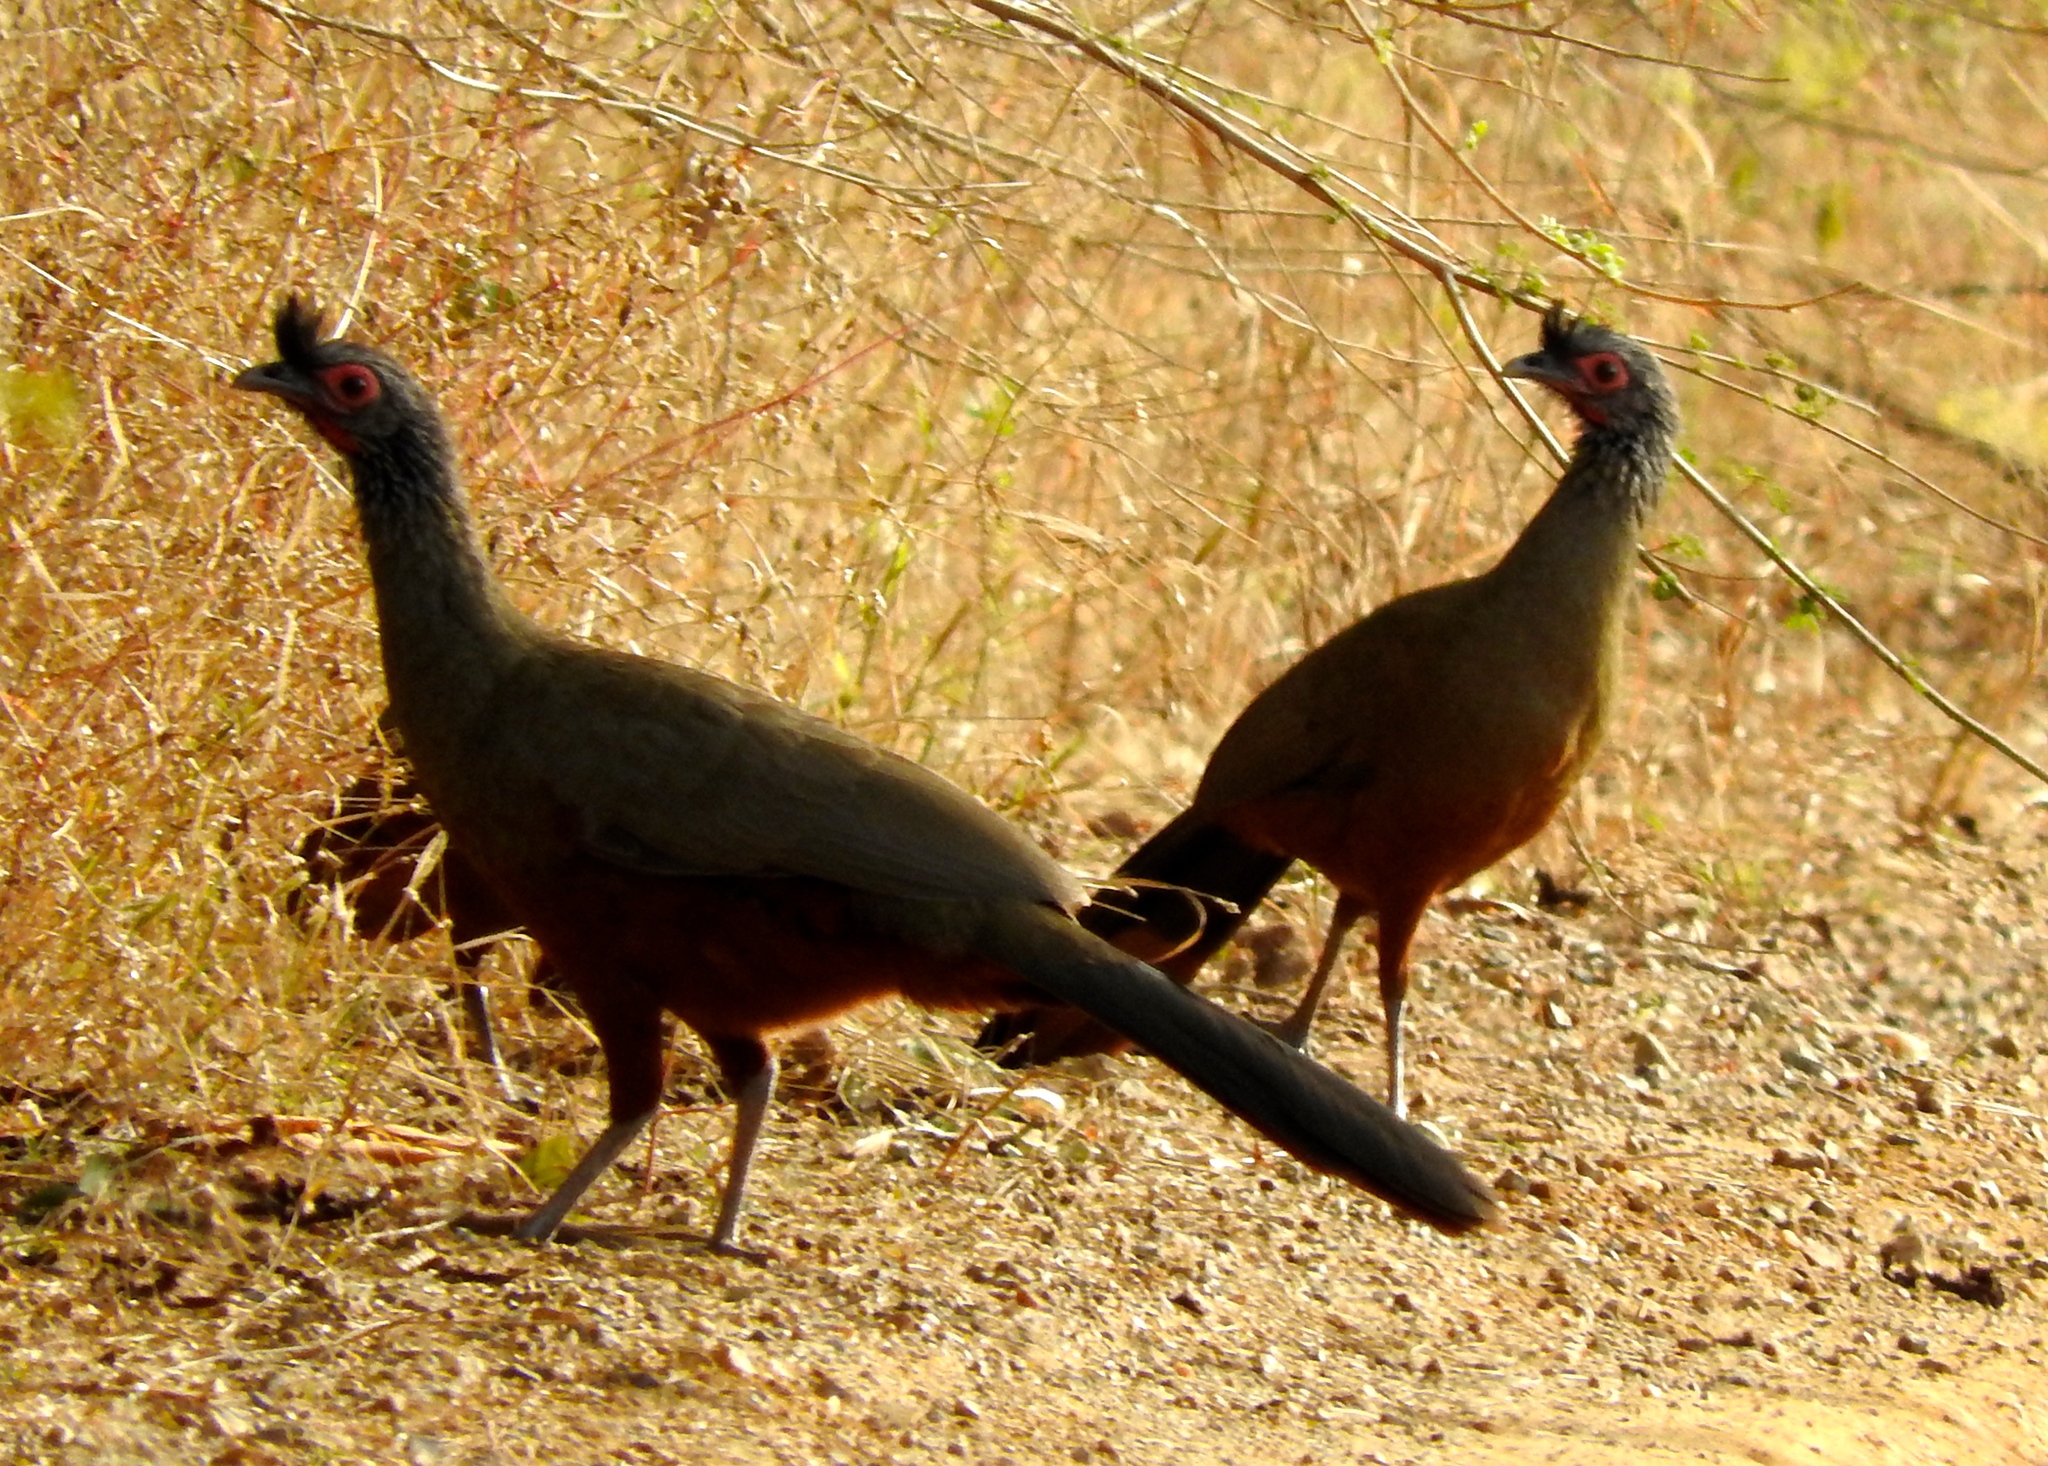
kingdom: Animalia
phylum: Chordata
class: Aves
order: Galliformes
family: Cracidae
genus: Ortalis
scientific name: Ortalis wagleri
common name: Rufous-bellied chachalaca
